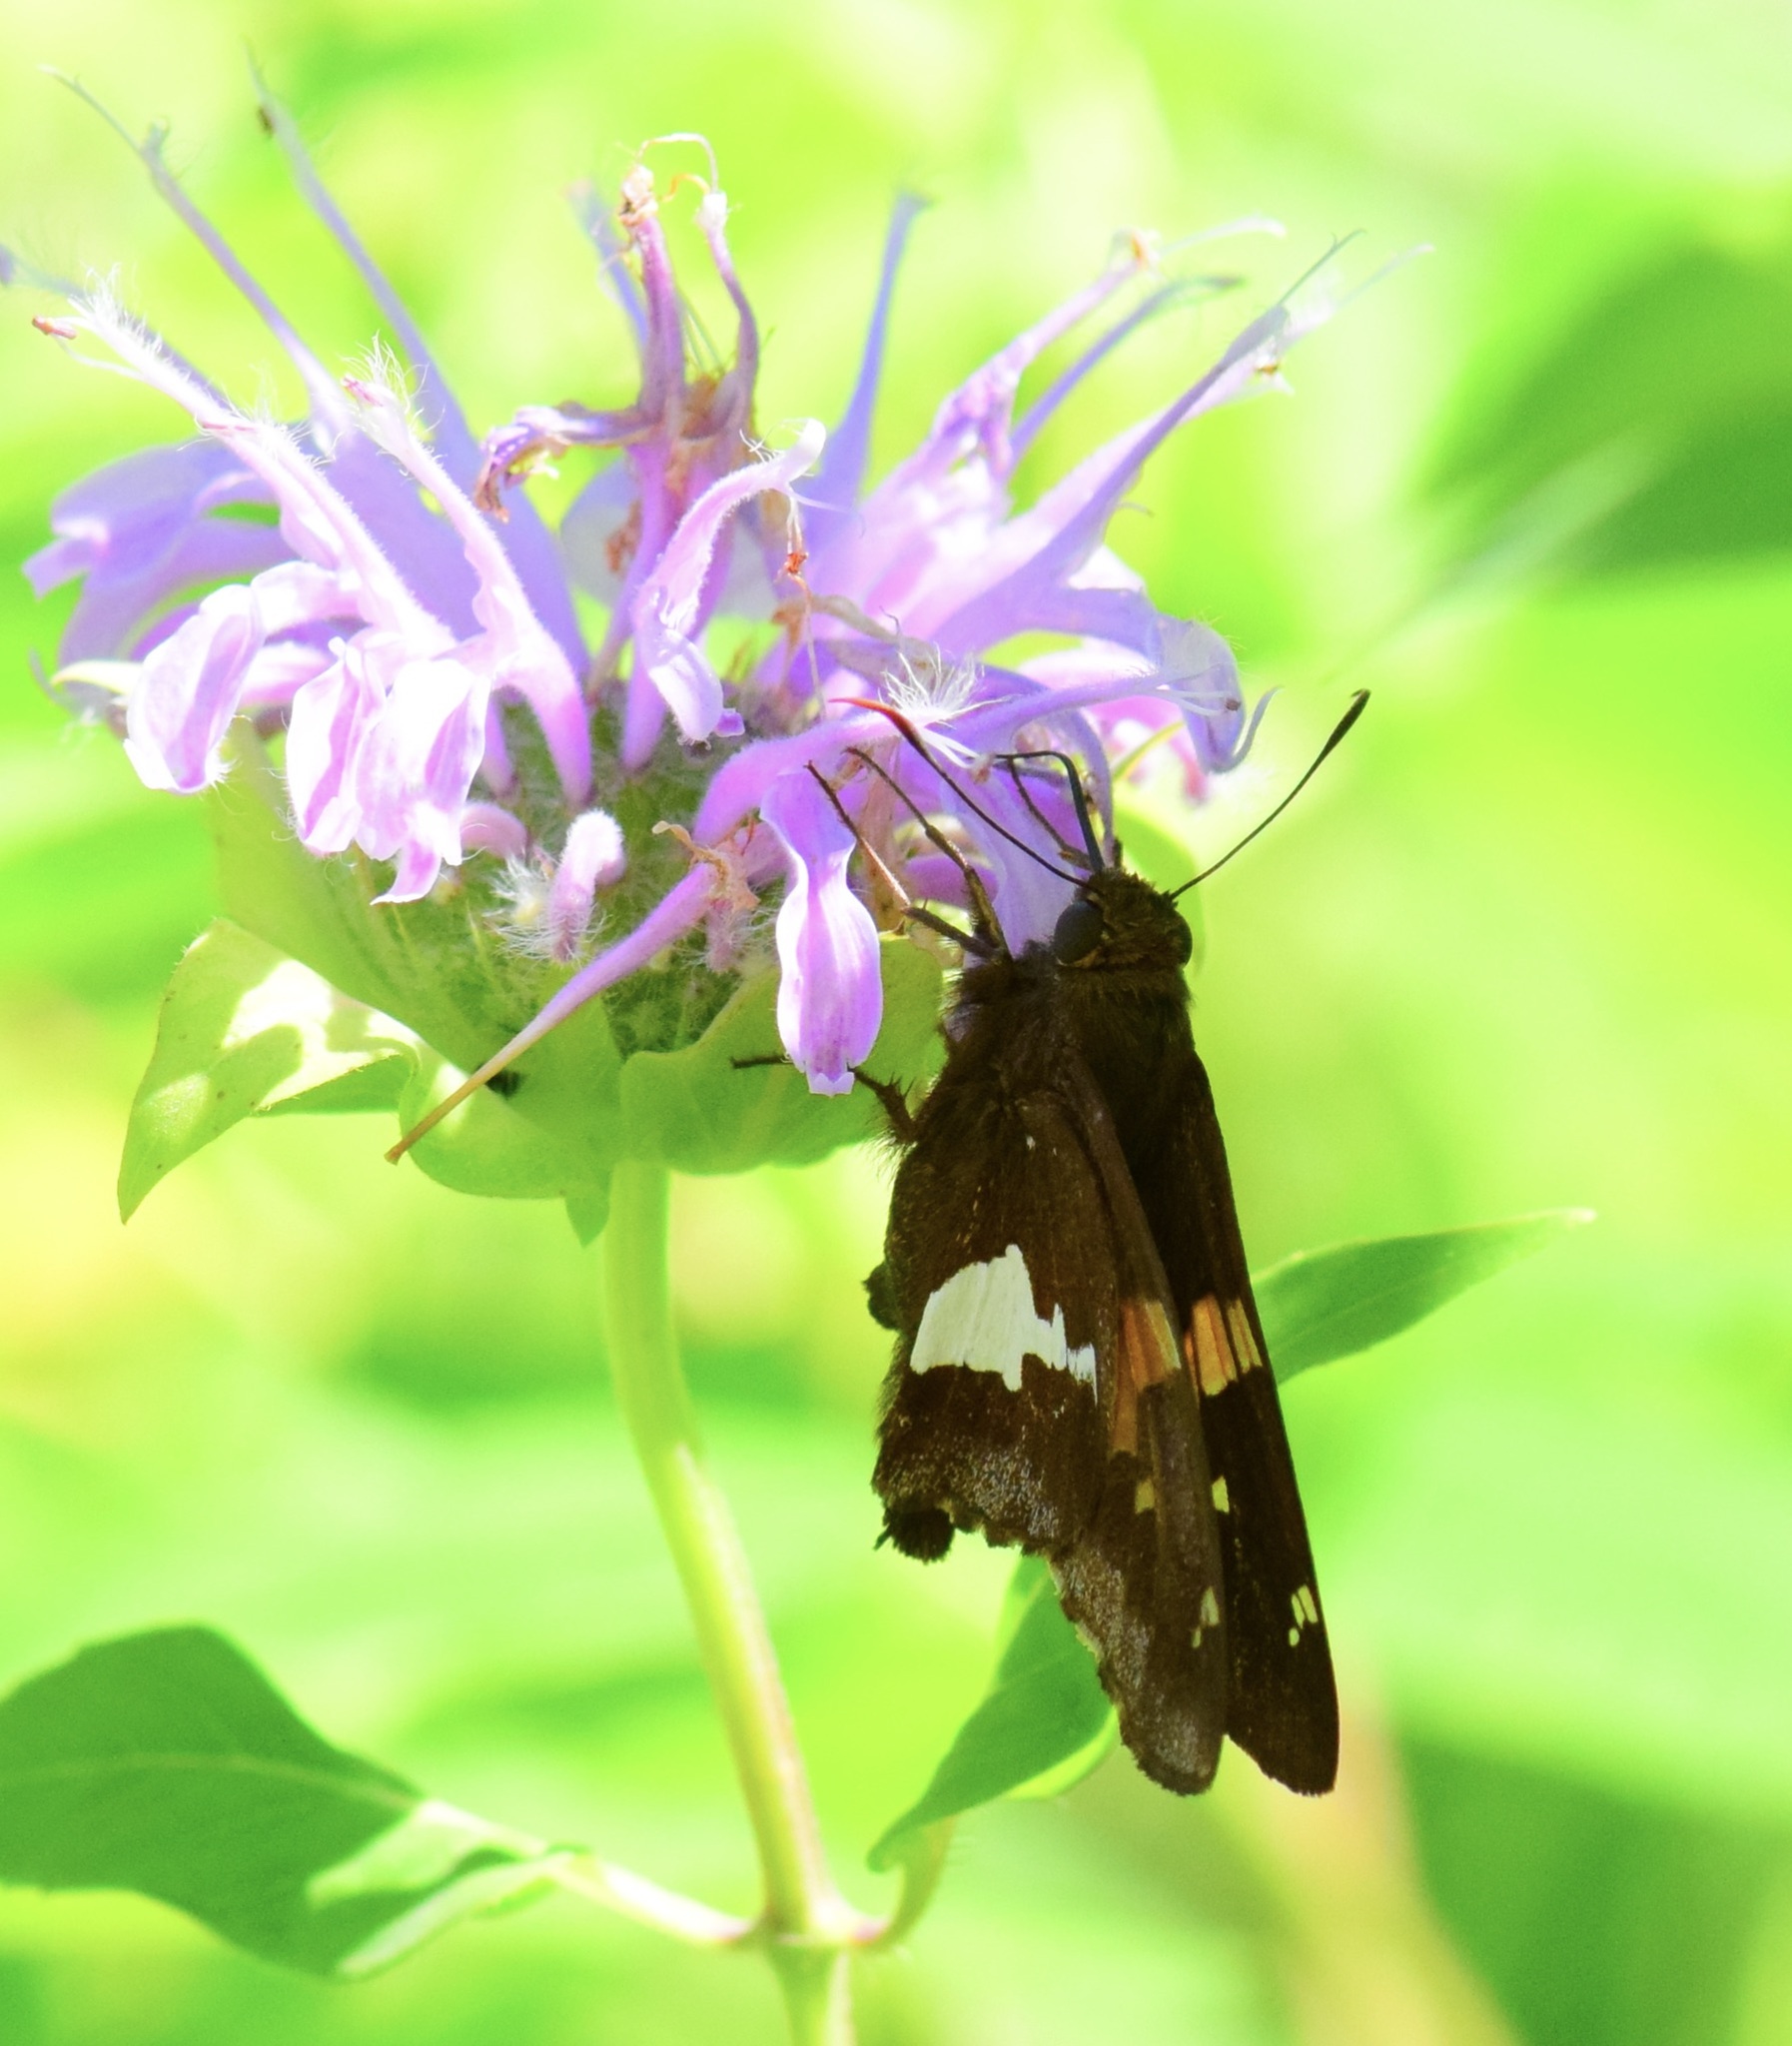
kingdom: Animalia
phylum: Arthropoda
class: Insecta
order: Lepidoptera
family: Hesperiidae
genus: Epargyreus
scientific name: Epargyreus clarus
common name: Silver-spotted skipper
